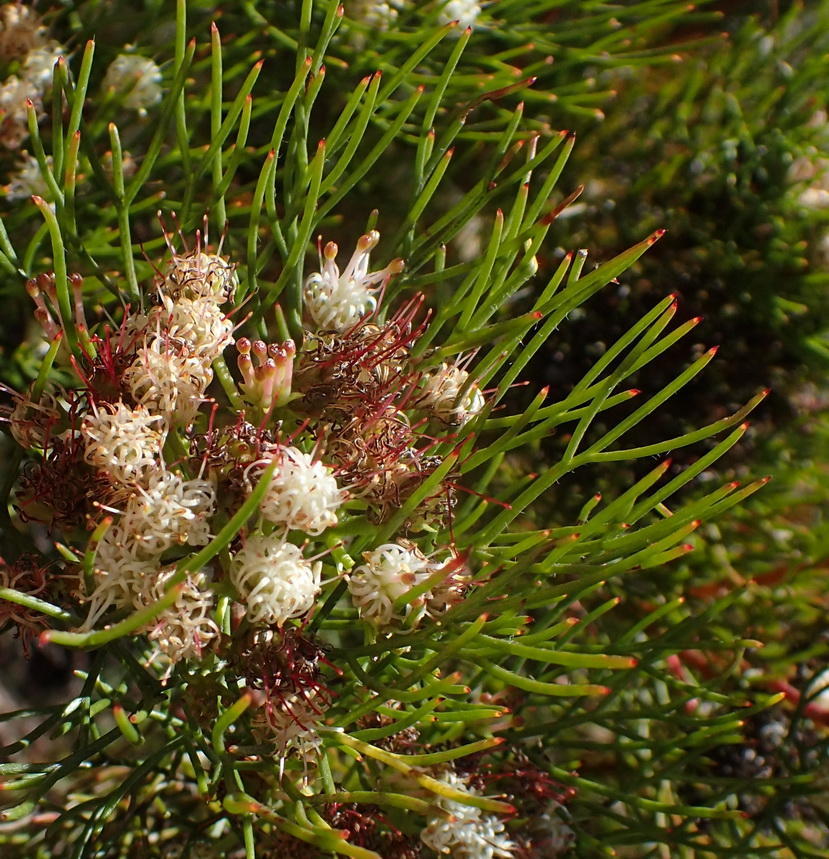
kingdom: Plantae
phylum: Tracheophyta
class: Magnoliopsida
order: Proteales
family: Proteaceae
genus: Serruria
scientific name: Serruria fasciflora
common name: Common pin spiderhead
